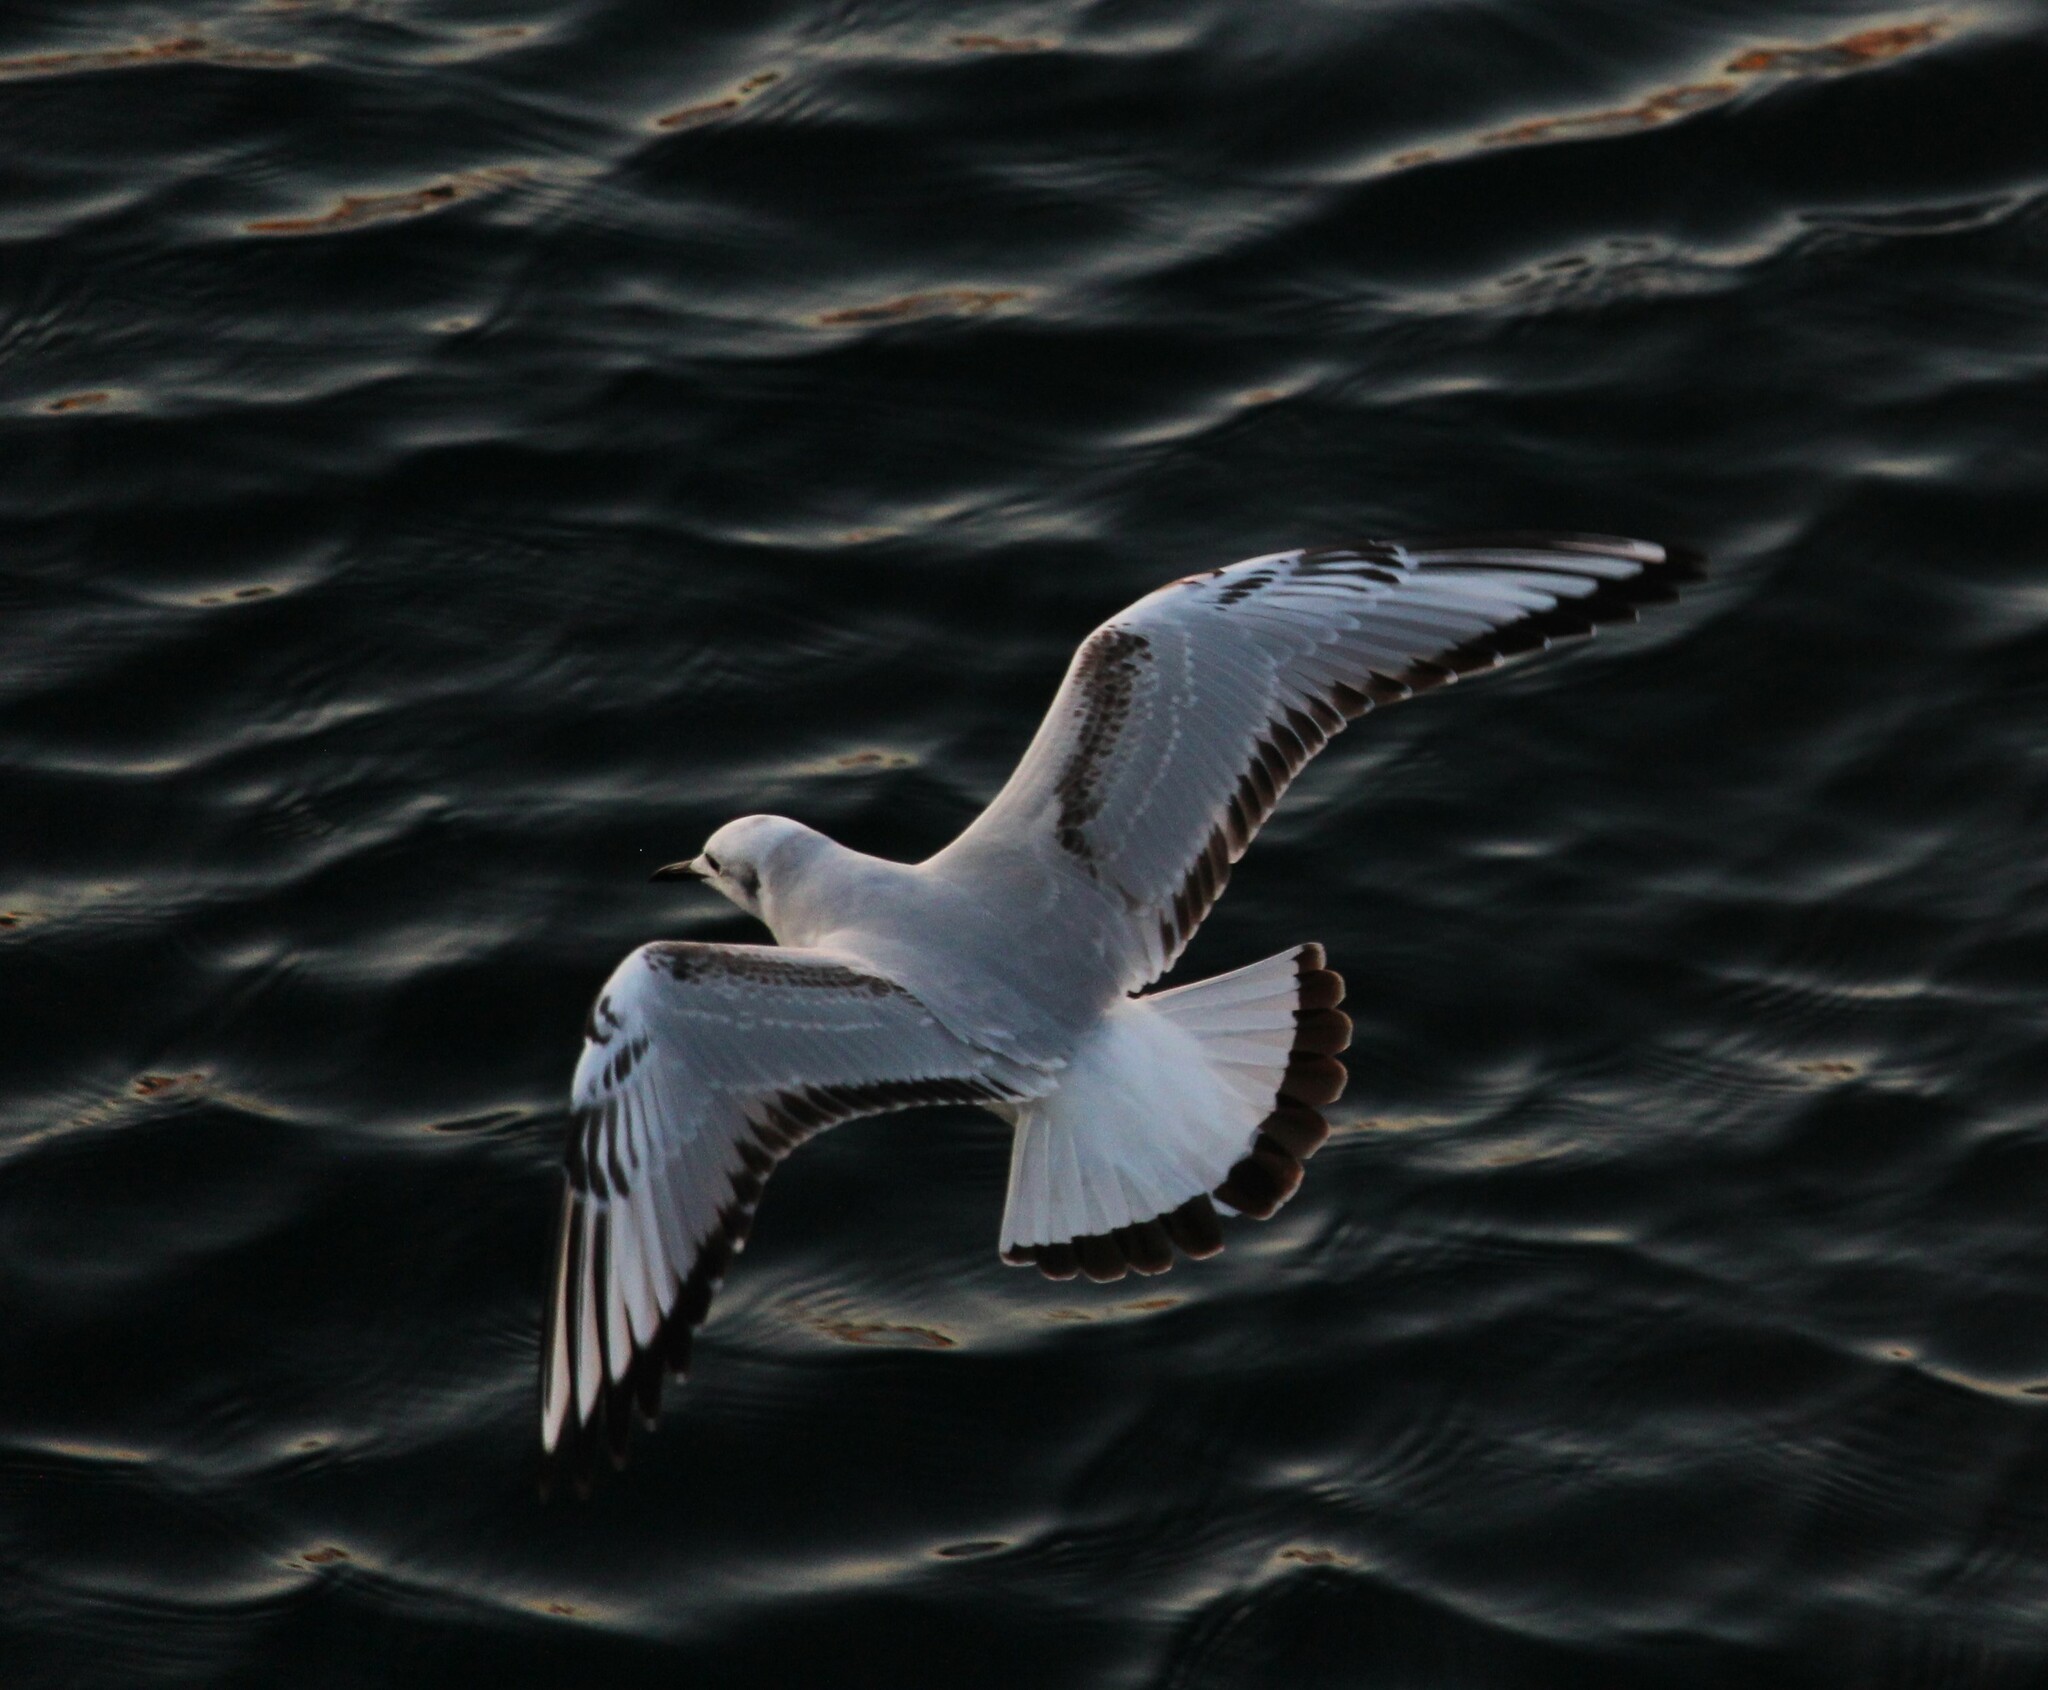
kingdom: Animalia
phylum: Chordata
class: Aves
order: Charadriiformes
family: Laridae
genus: Chroicocephalus
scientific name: Chroicocephalus philadelphia
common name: Bonaparte's gull
